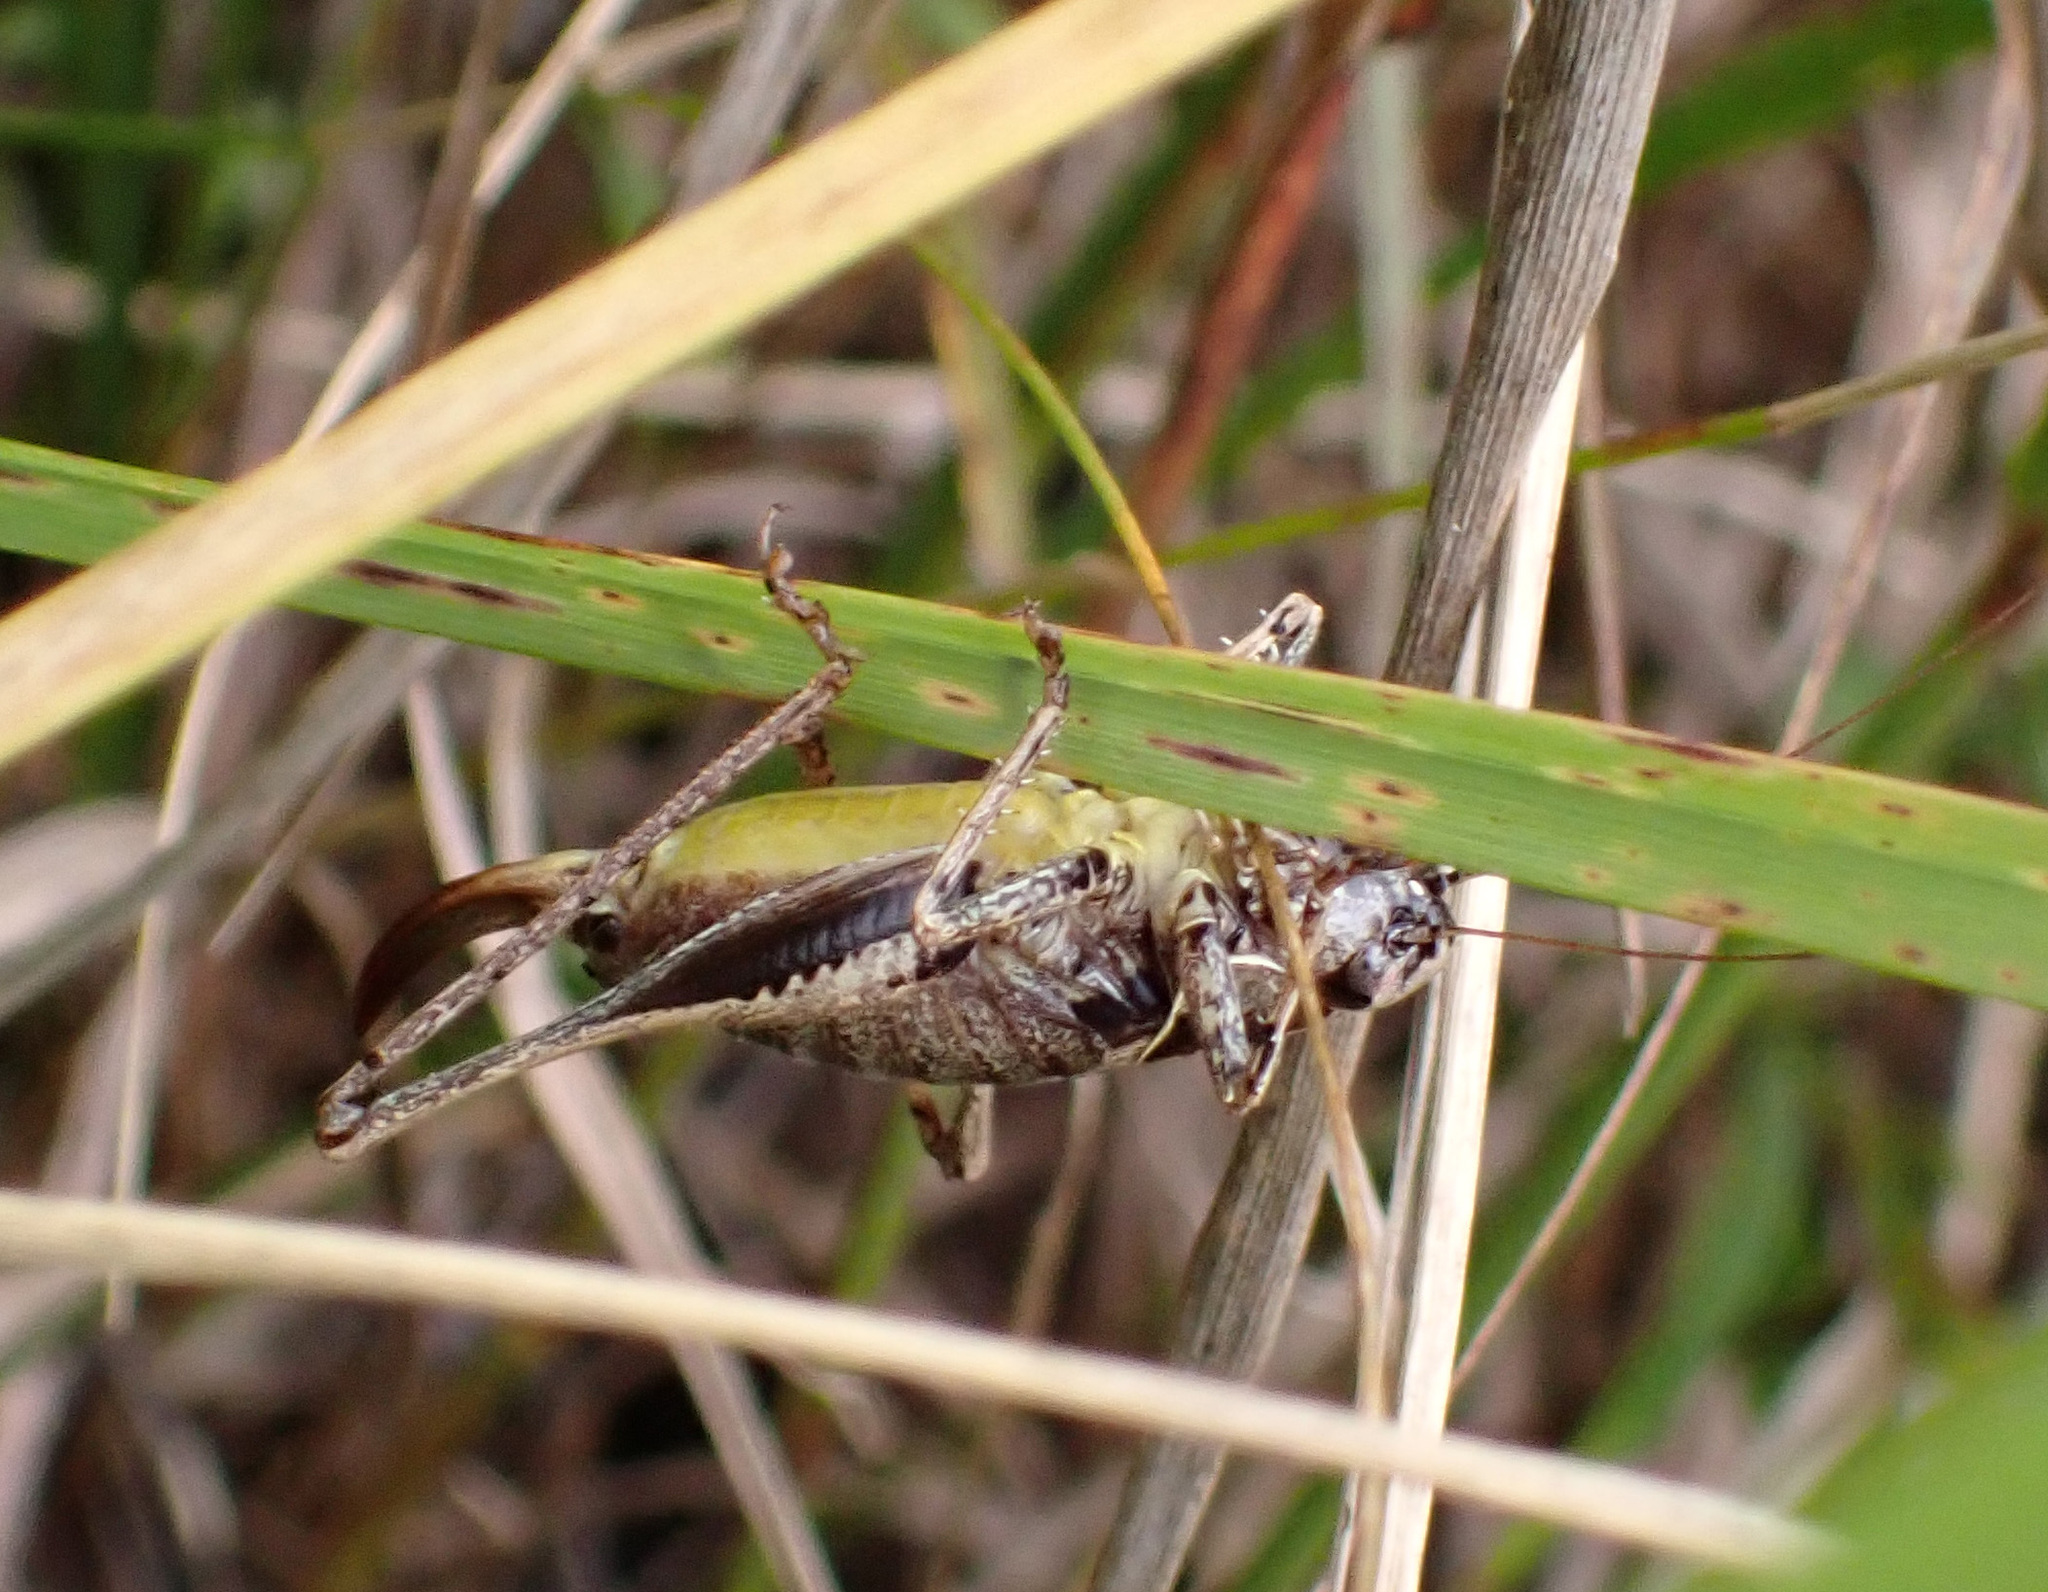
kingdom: Animalia
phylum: Arthropoda
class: Insecta
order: Orthoptera
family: Tettigoniidae
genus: Pholidoptera
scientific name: Pholidoptera griseoaptera
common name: Dark bush-cricket
